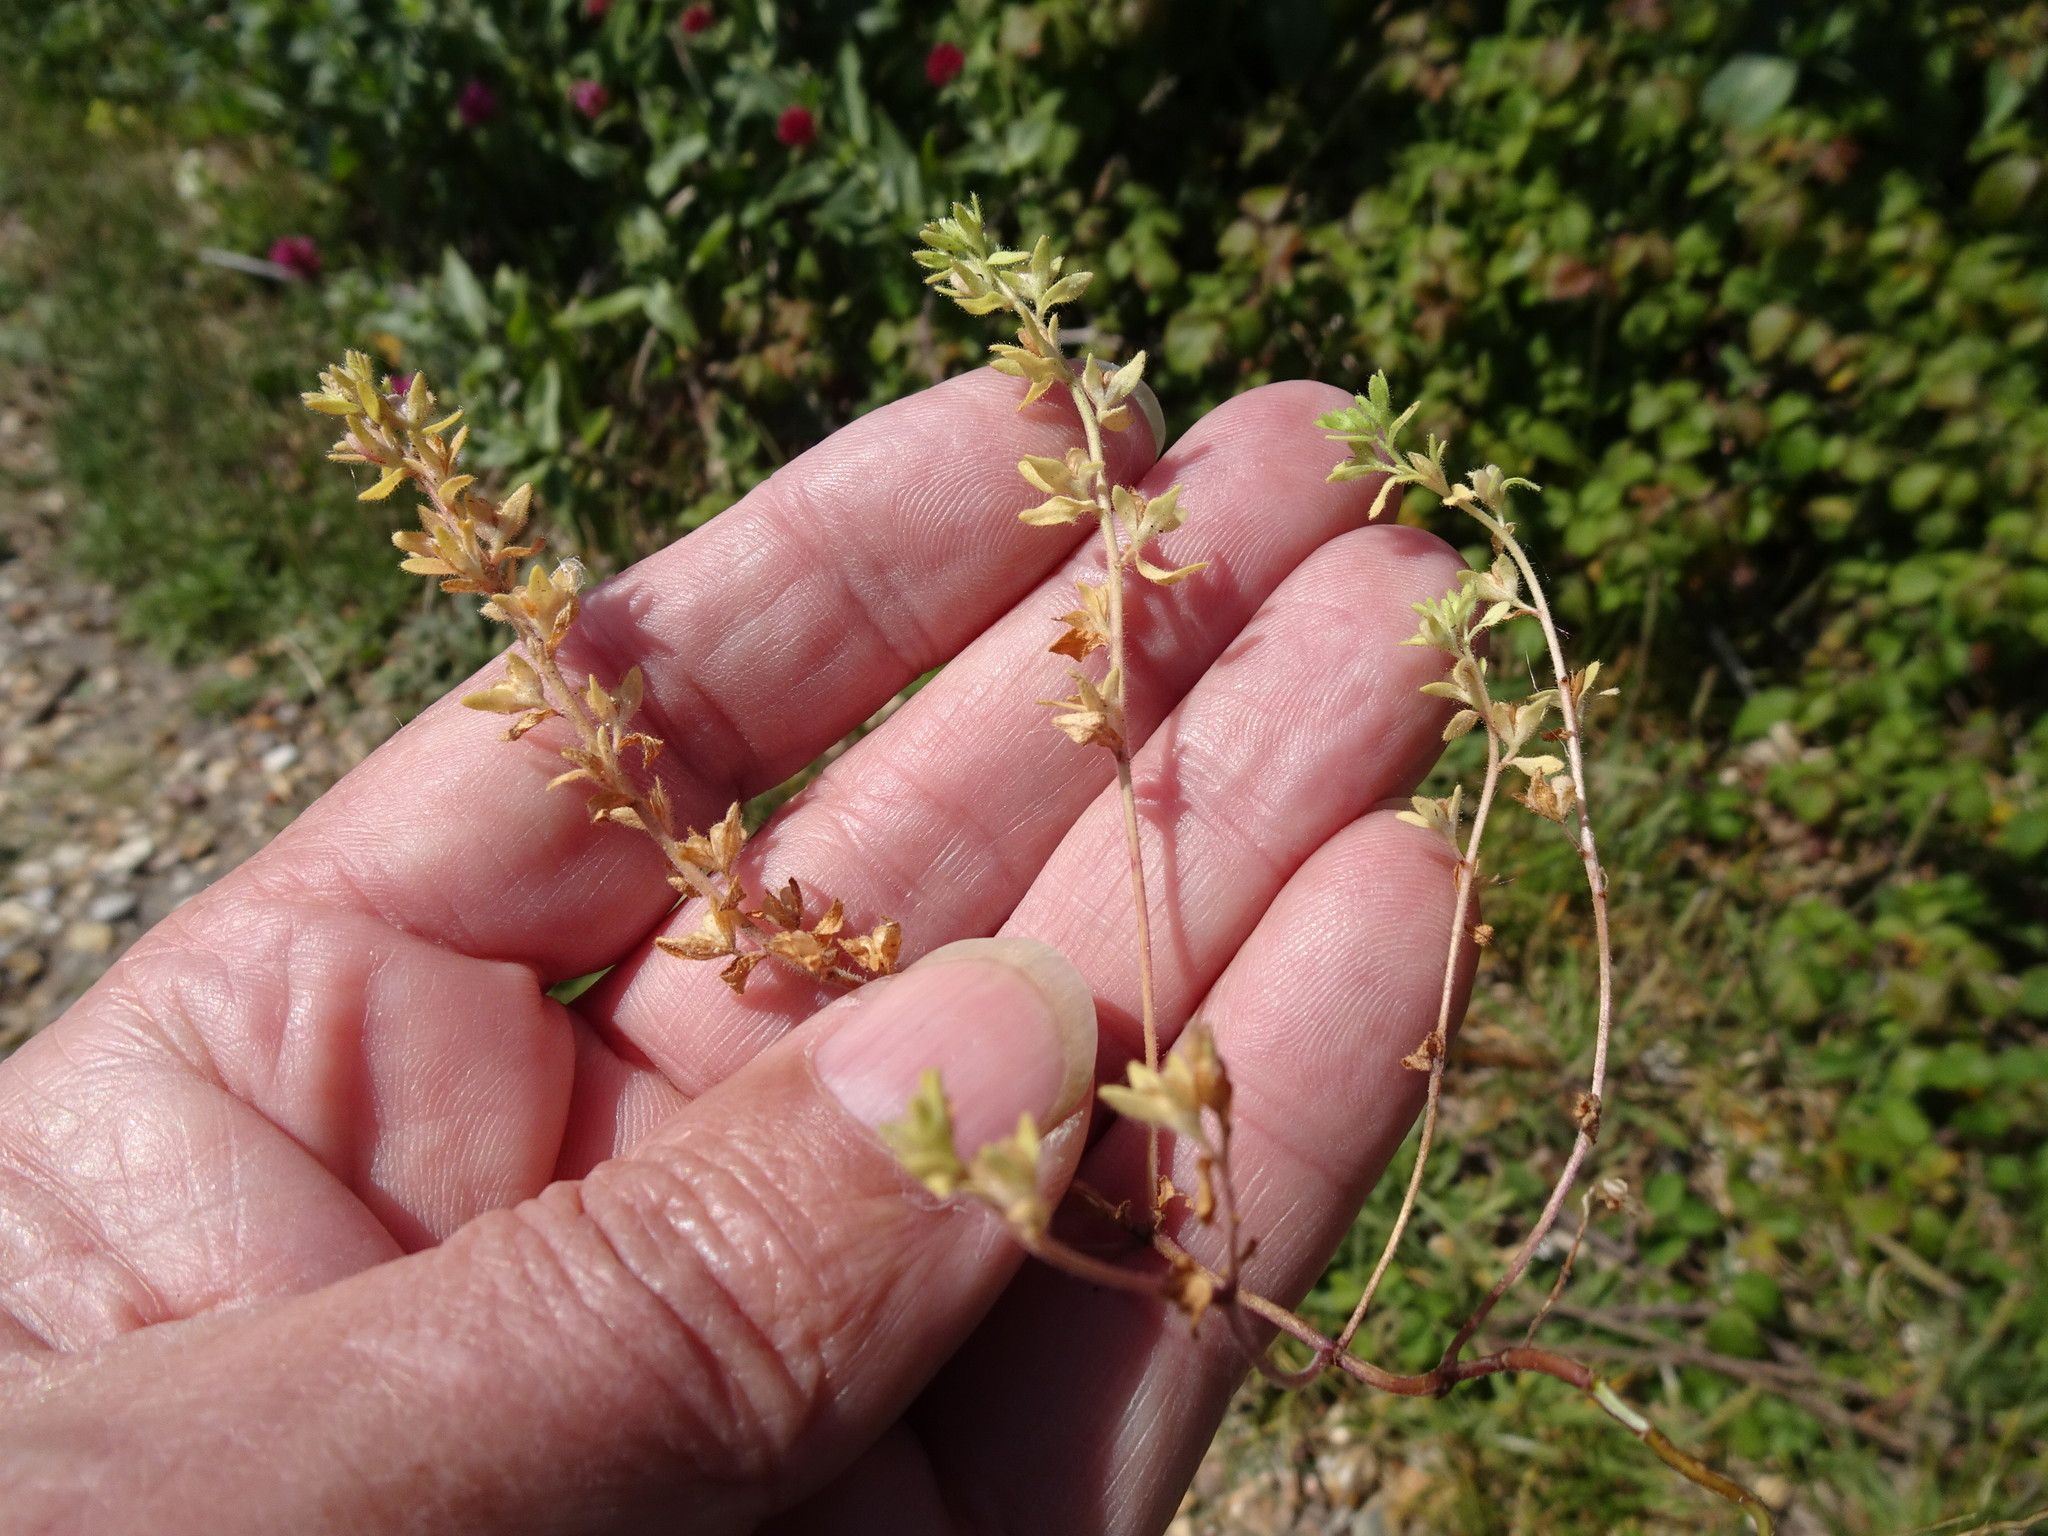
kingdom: Plantae
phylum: Tracheophyta
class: Magnoliopsida
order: Lamiales
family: Plantaginaceae
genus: Veronica
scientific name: Veronica arvensis
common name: Corn speedwell
